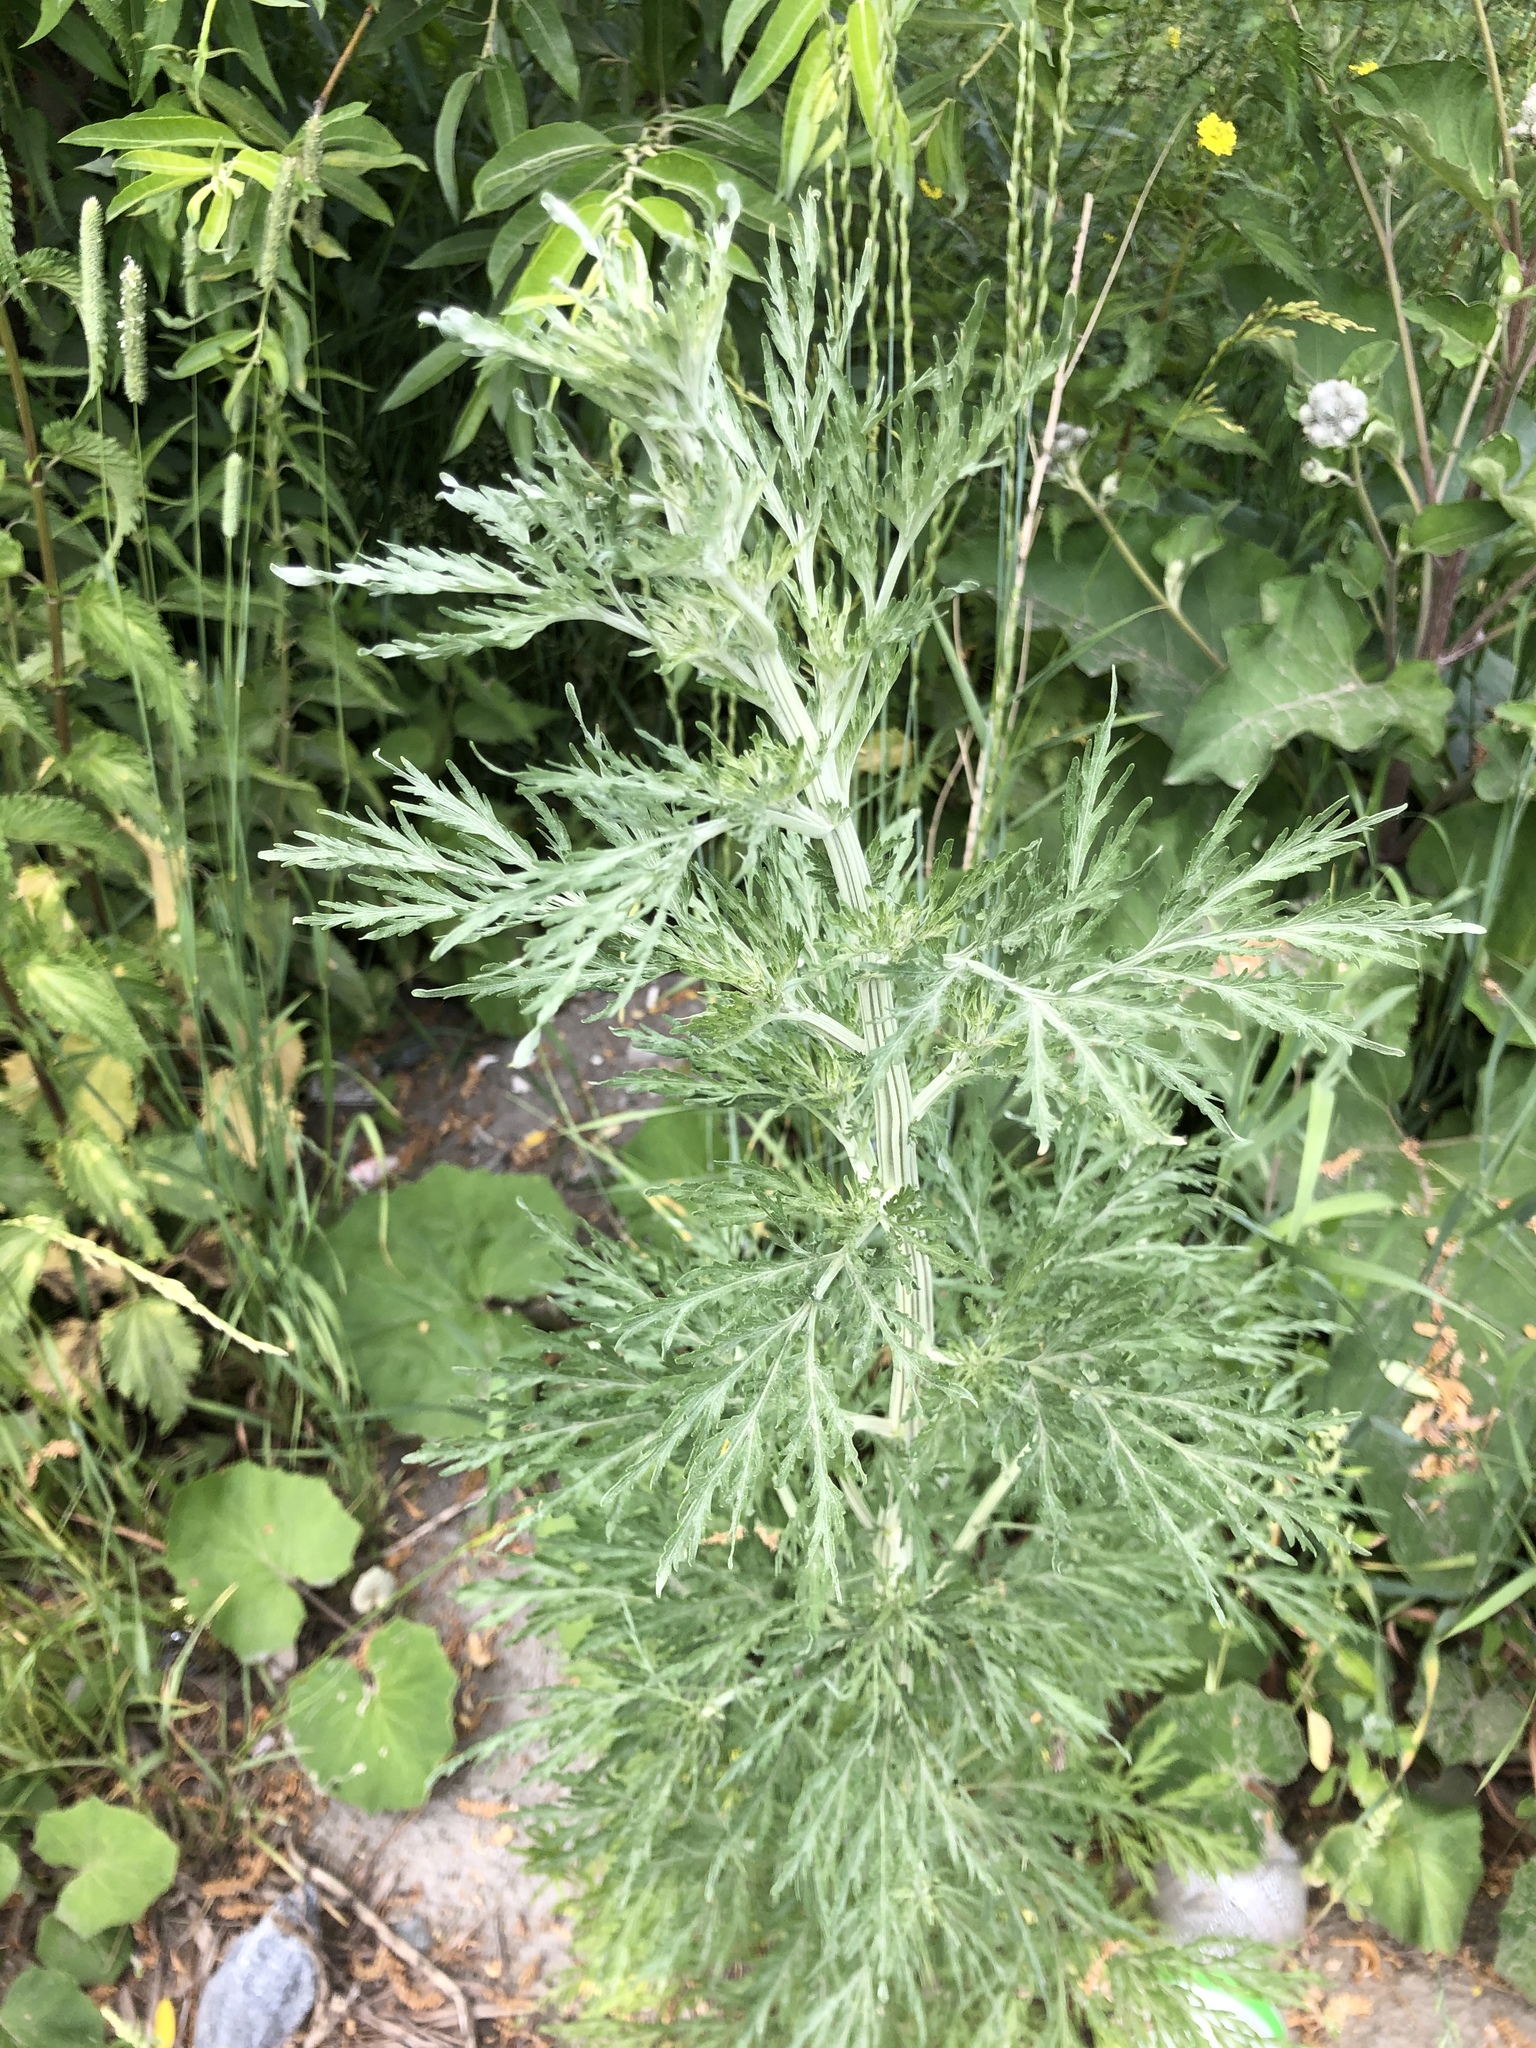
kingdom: Plantae
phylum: Tracheophyta
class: Magnoliopsida
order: Asterales
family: Asteraceae
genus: Artemisia
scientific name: Artemisia absinthium
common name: Wormwood
